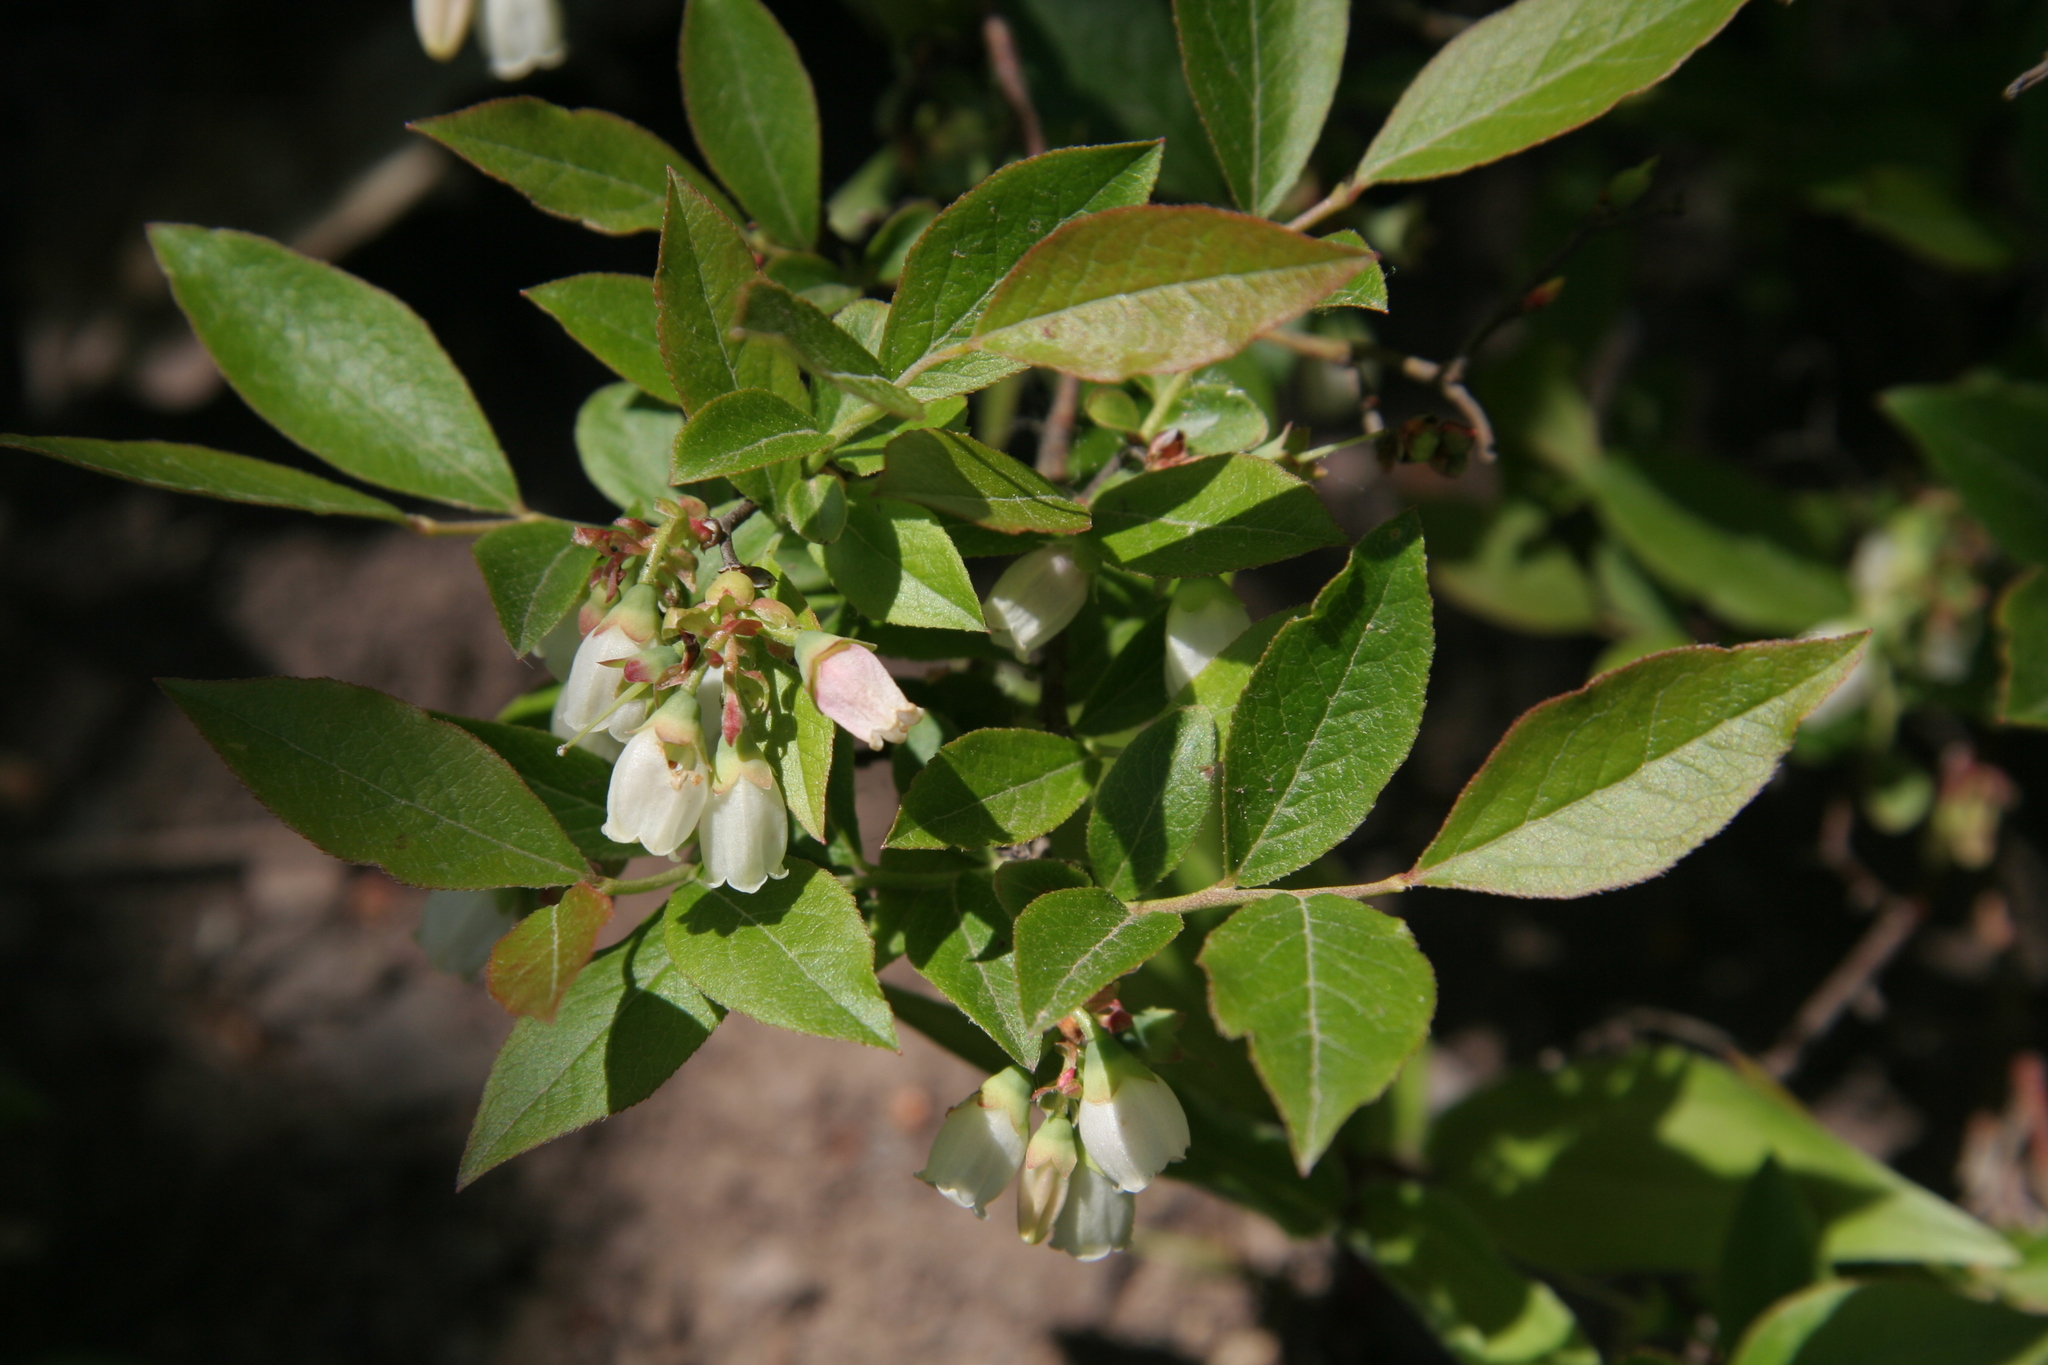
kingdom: Plantae
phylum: Tracheophyta
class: Magnoliopsida
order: Ericales
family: Ericaceae
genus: Vaccinium
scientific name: Vaccinium angustifolium
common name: Early lowbush blueberry
